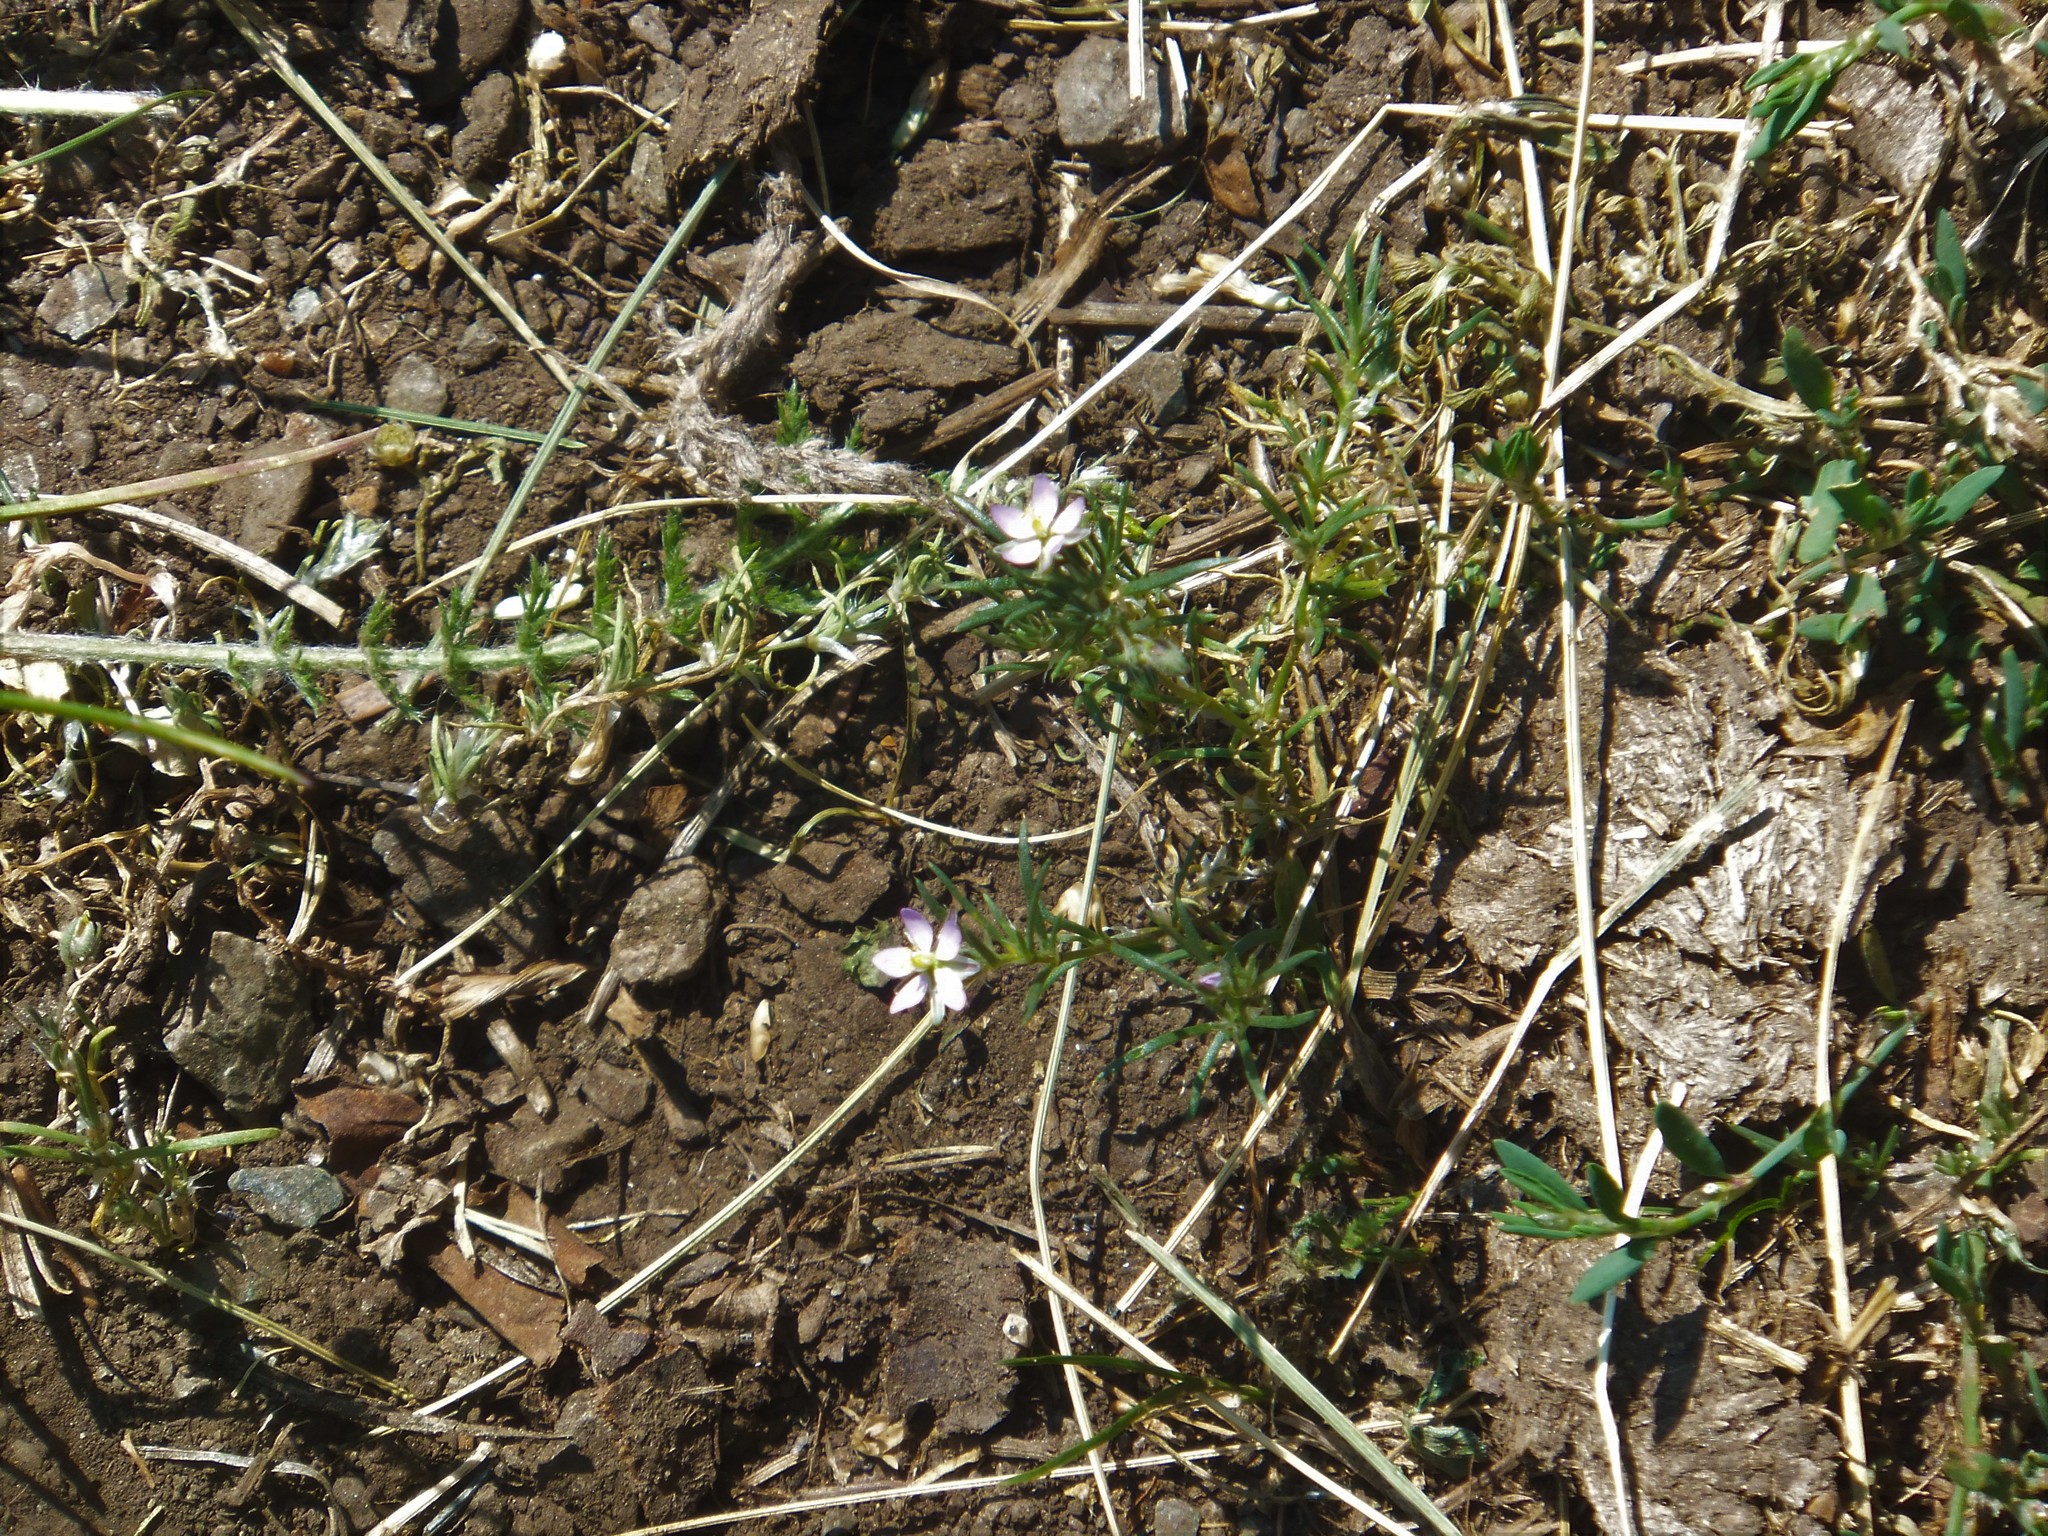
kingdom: Plantae
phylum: Tracheophyta
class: Magnoliopsida
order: Caryophyllales
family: Caryophyllaceae
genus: Spergularia
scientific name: Spergularia rubra
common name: Red sand-spurrey
